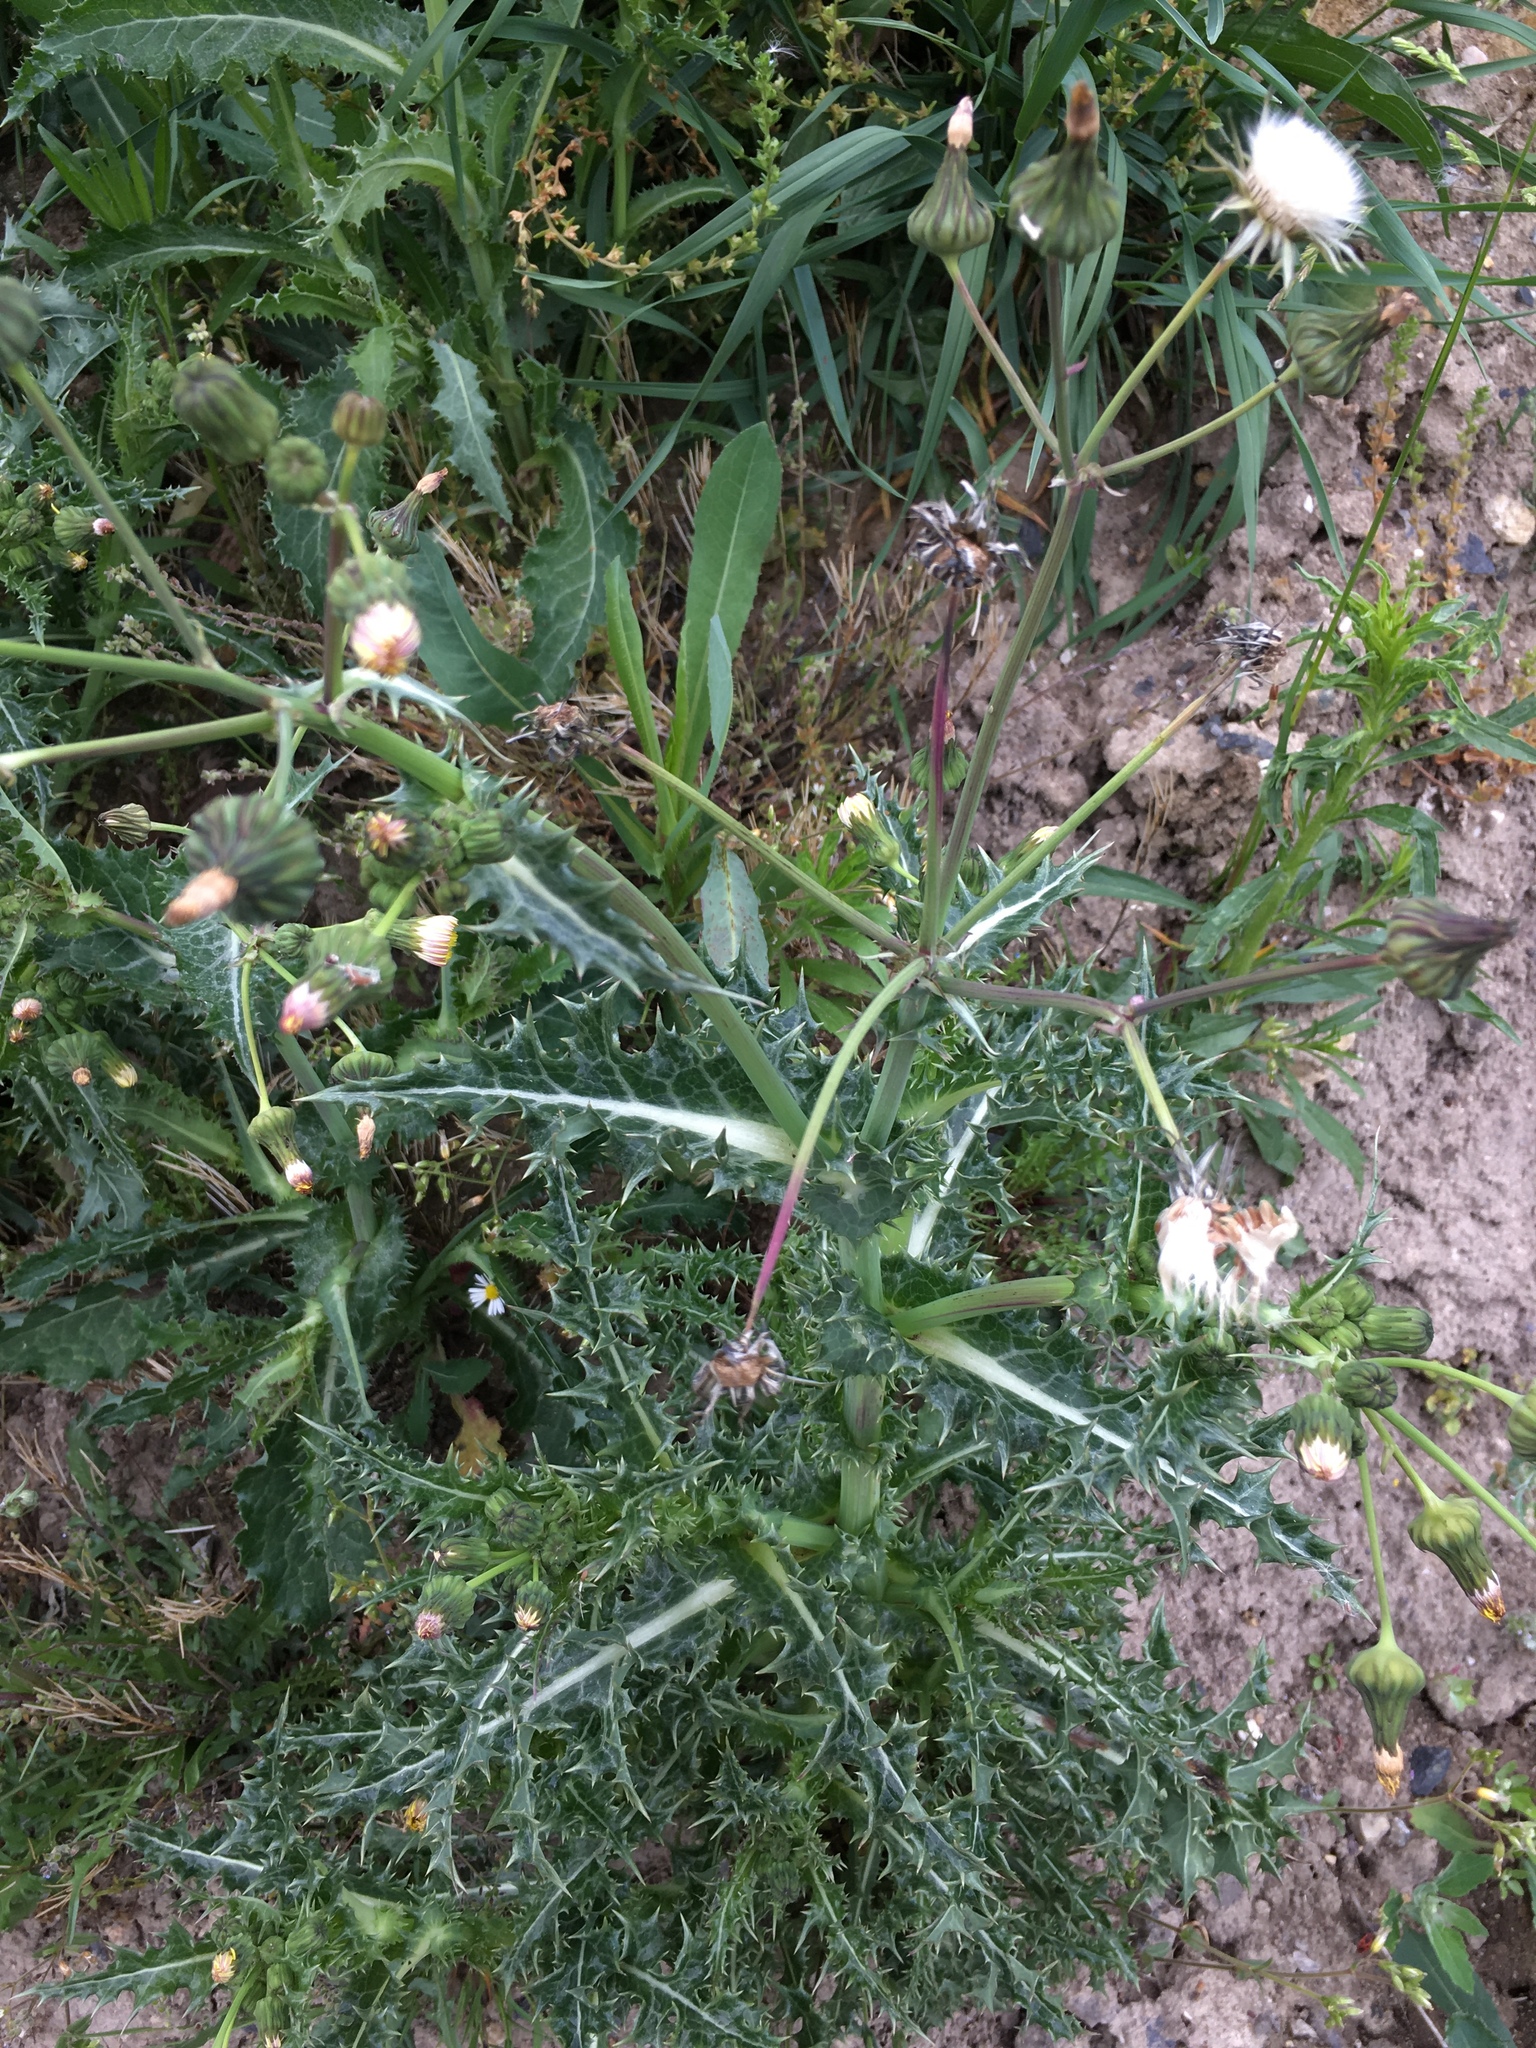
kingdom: Plantae
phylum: Tracheophyta
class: Magnoliopsida
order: Asterales
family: Asteraceae
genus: Sonchus
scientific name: Sonchus asper
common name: Prickly sow-thistle
